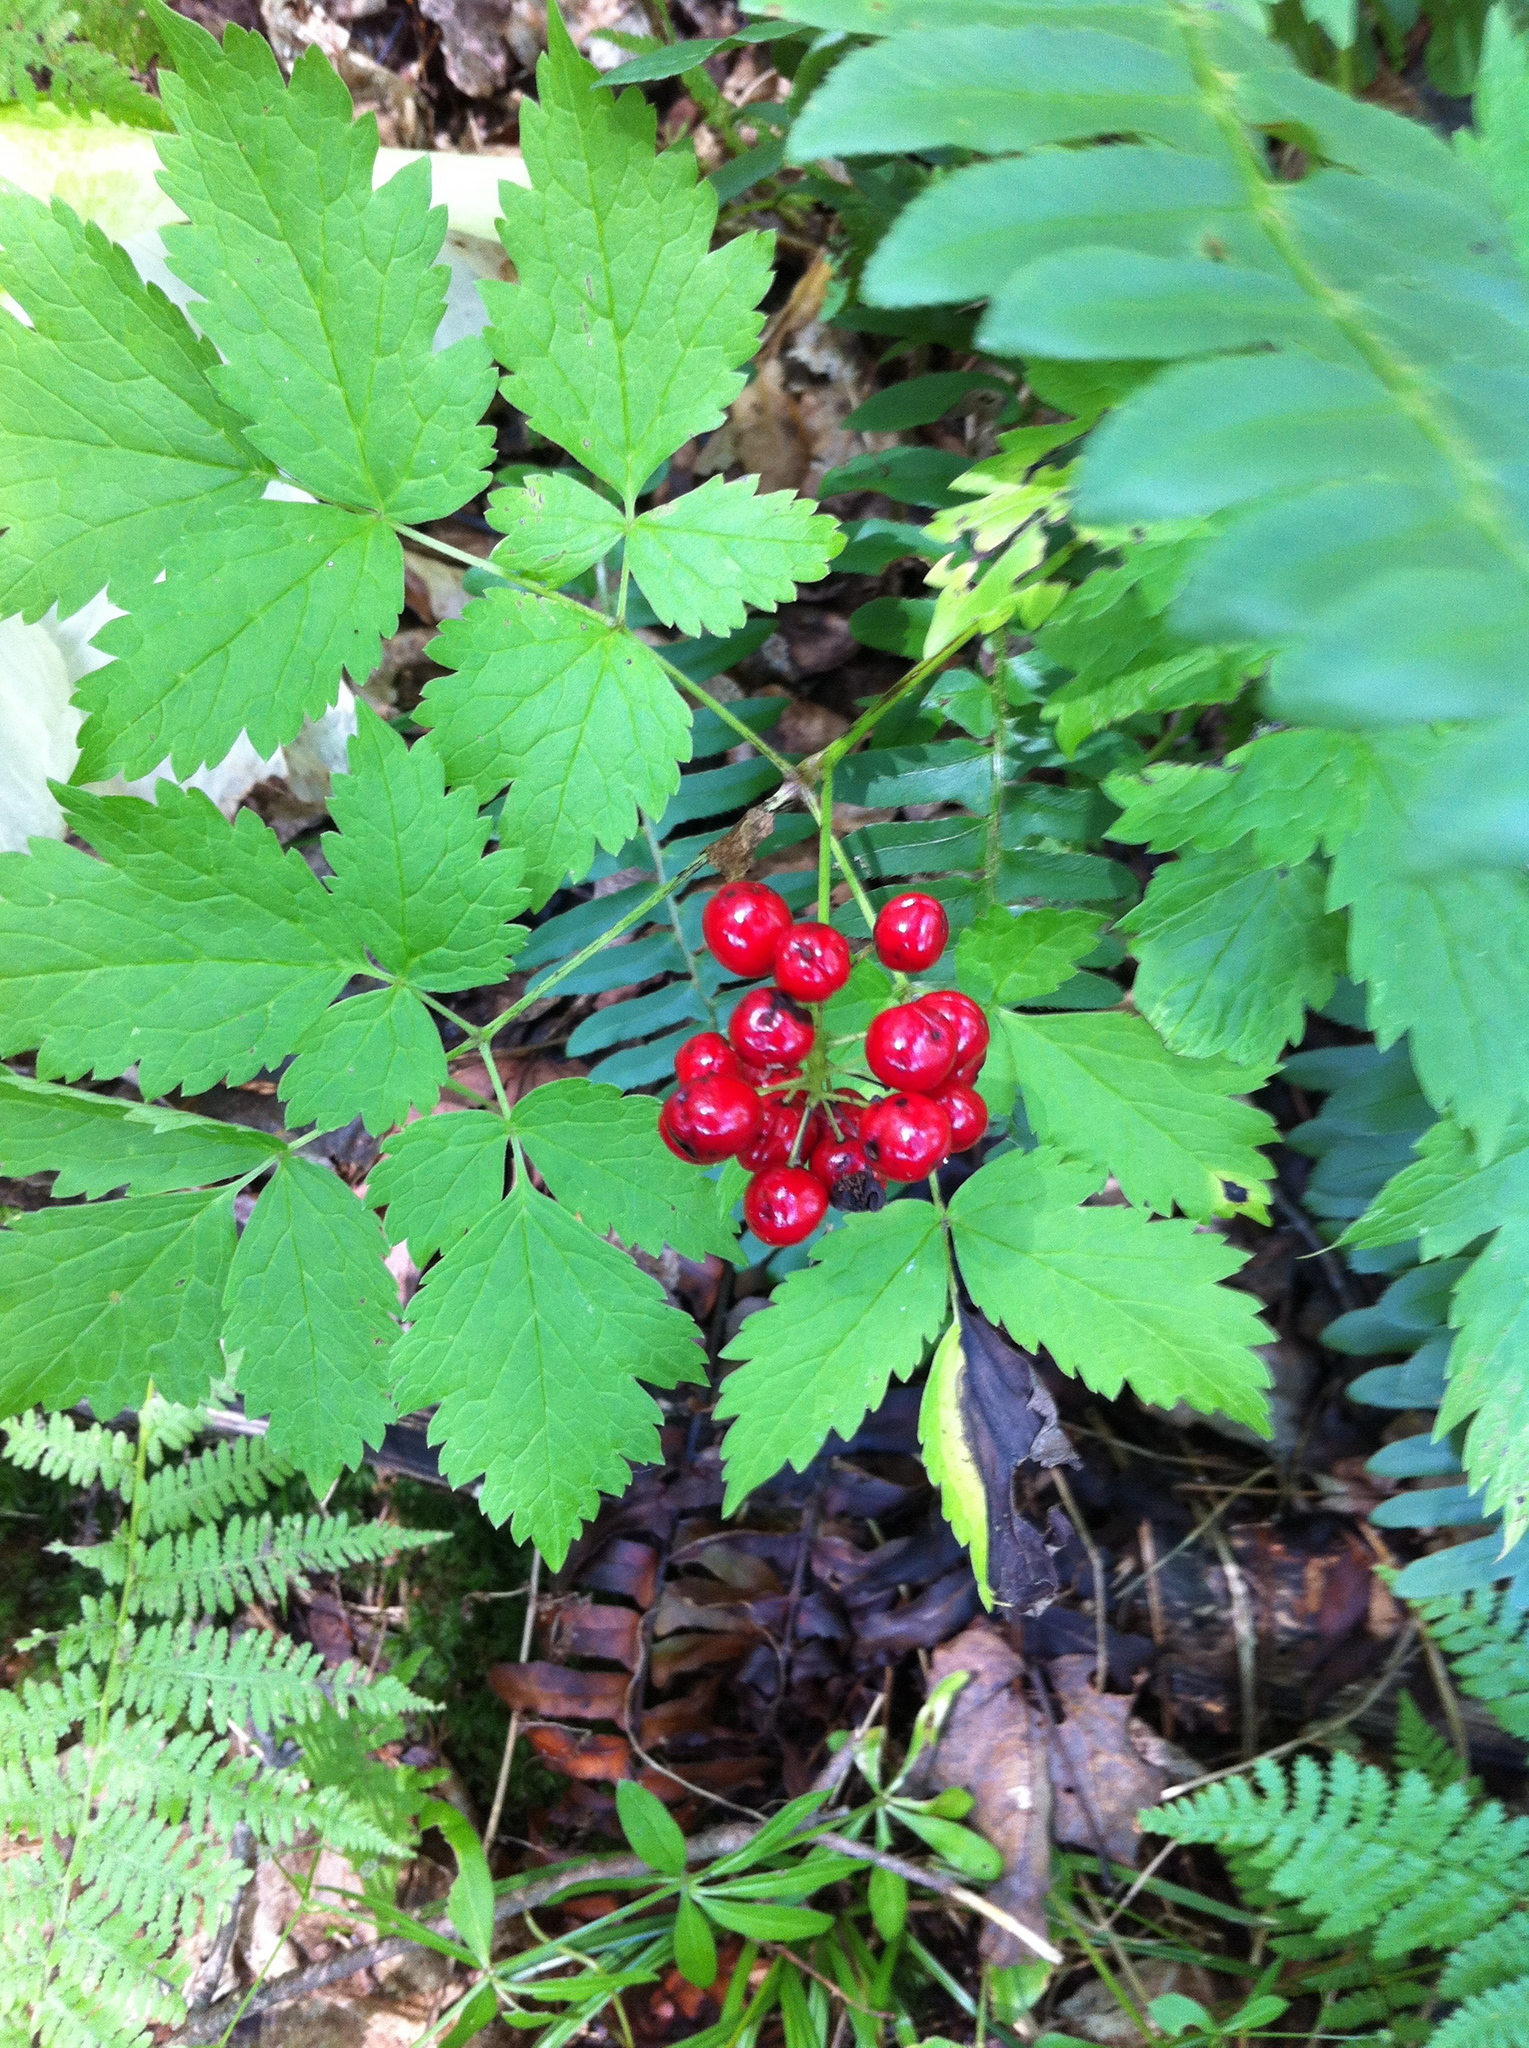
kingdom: Plantae
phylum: Tracheophyta
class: Magnoliopsida
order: Ranunculales
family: Ranunculaceae
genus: Actaea
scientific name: Actaea rubra
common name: Red baneberry
